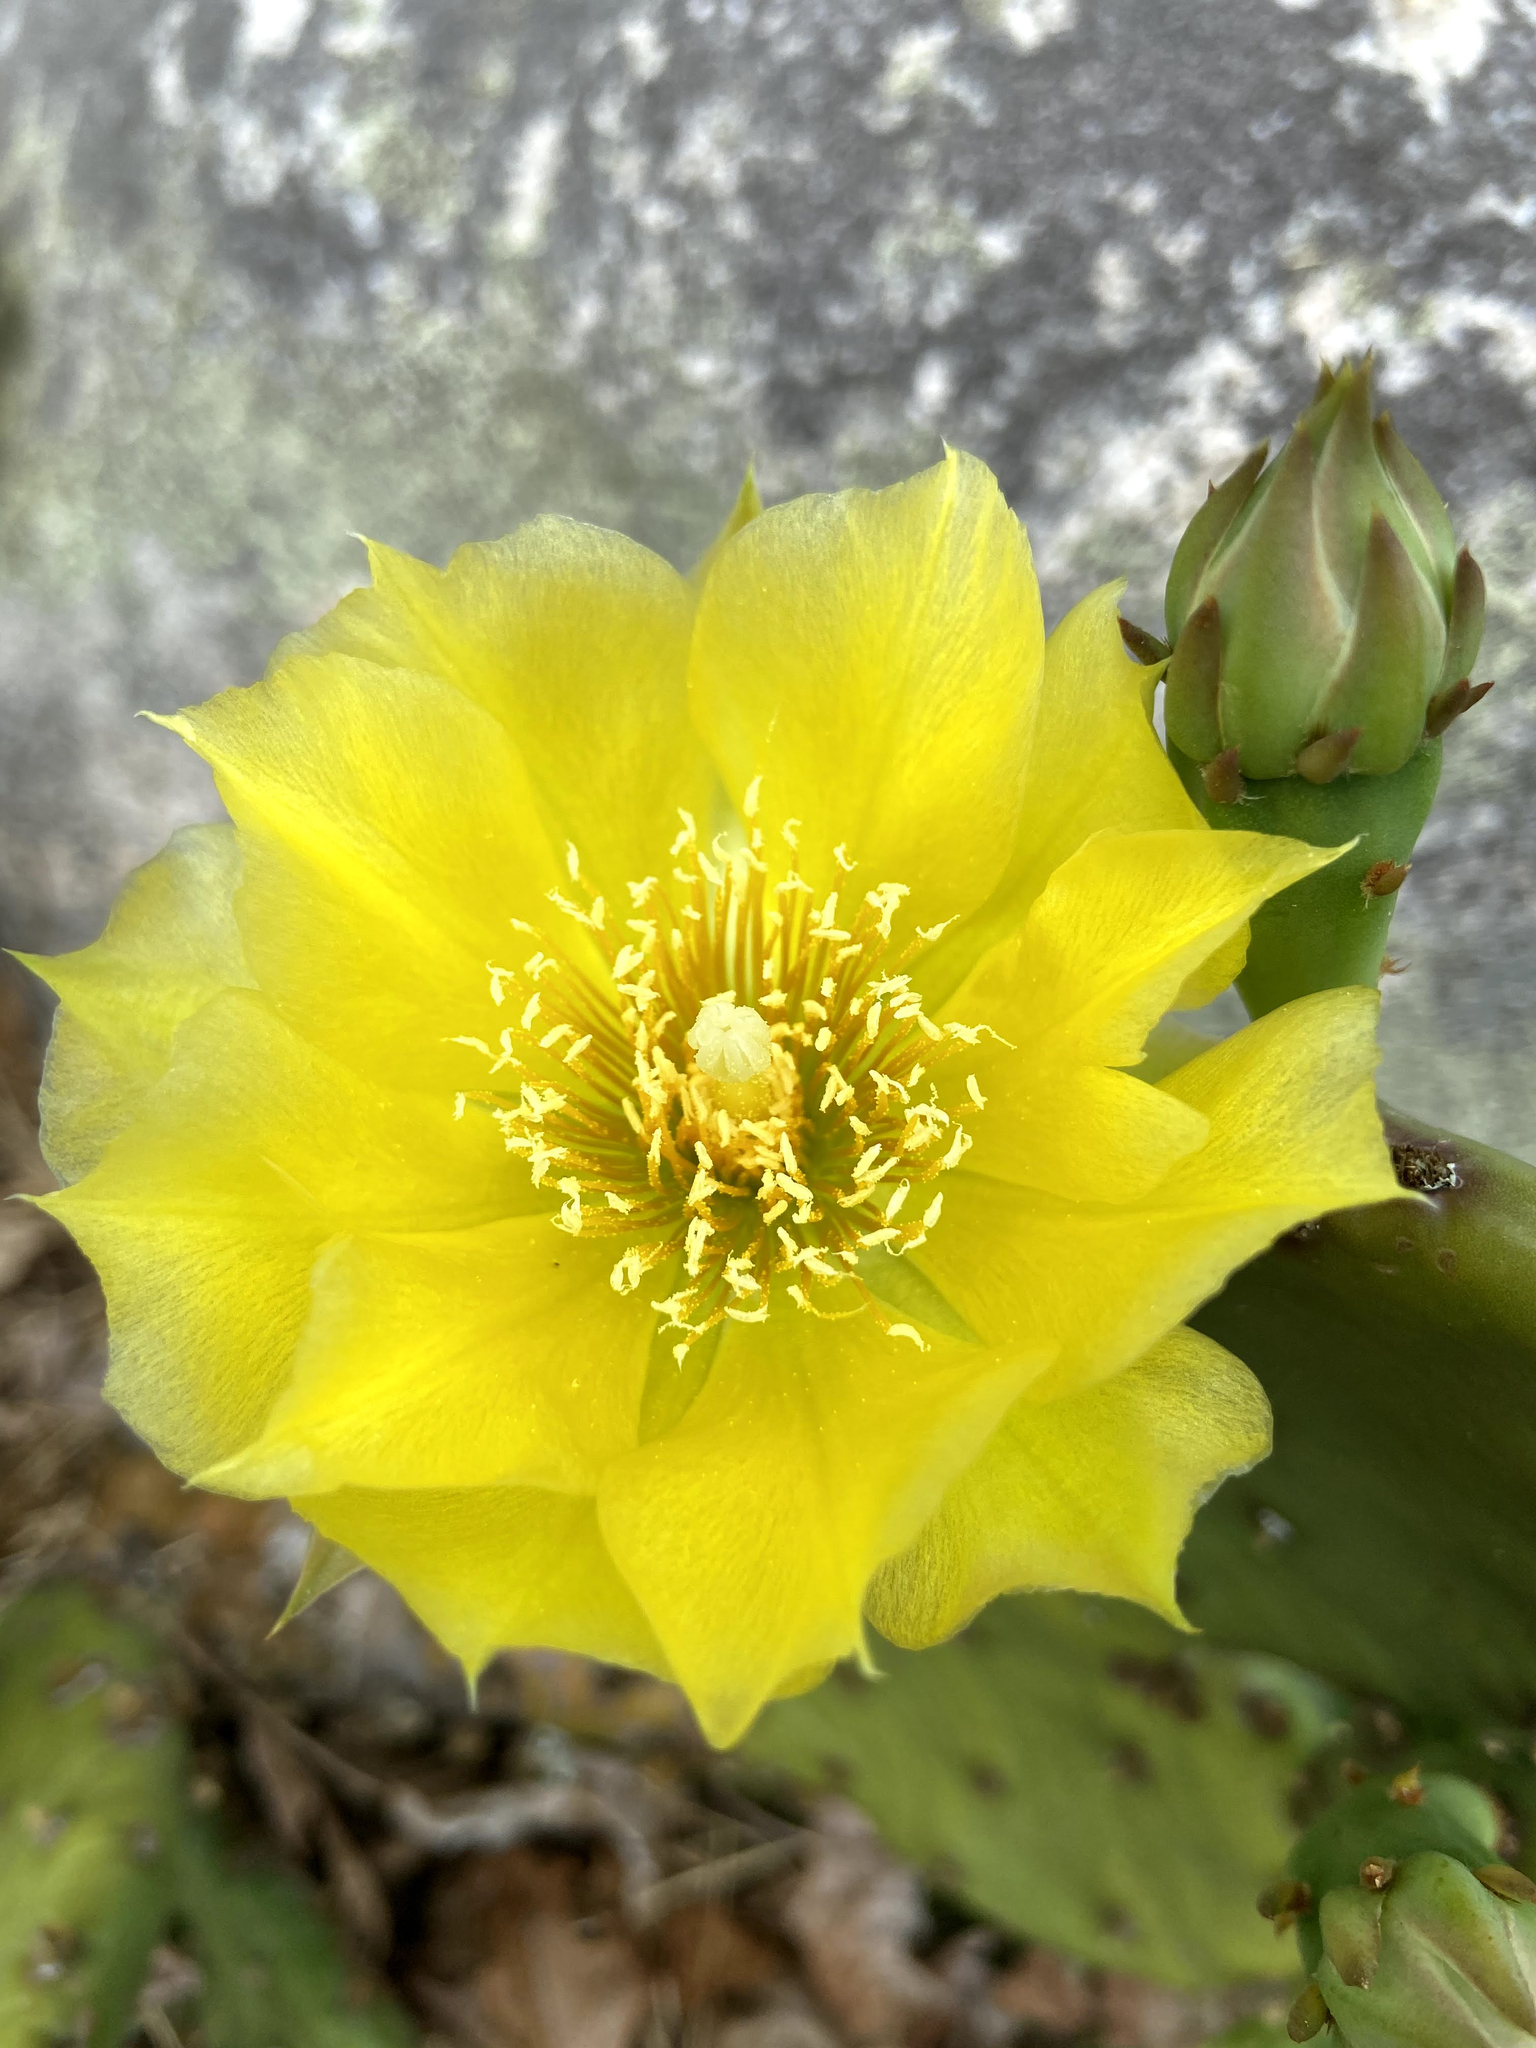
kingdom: Plantae
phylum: Tracheophyta
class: Magnoliopsida
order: Caryophyllales
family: Cactaceae
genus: Opuntia
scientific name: Opuntia humifusa
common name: Eastern prickly-pear
